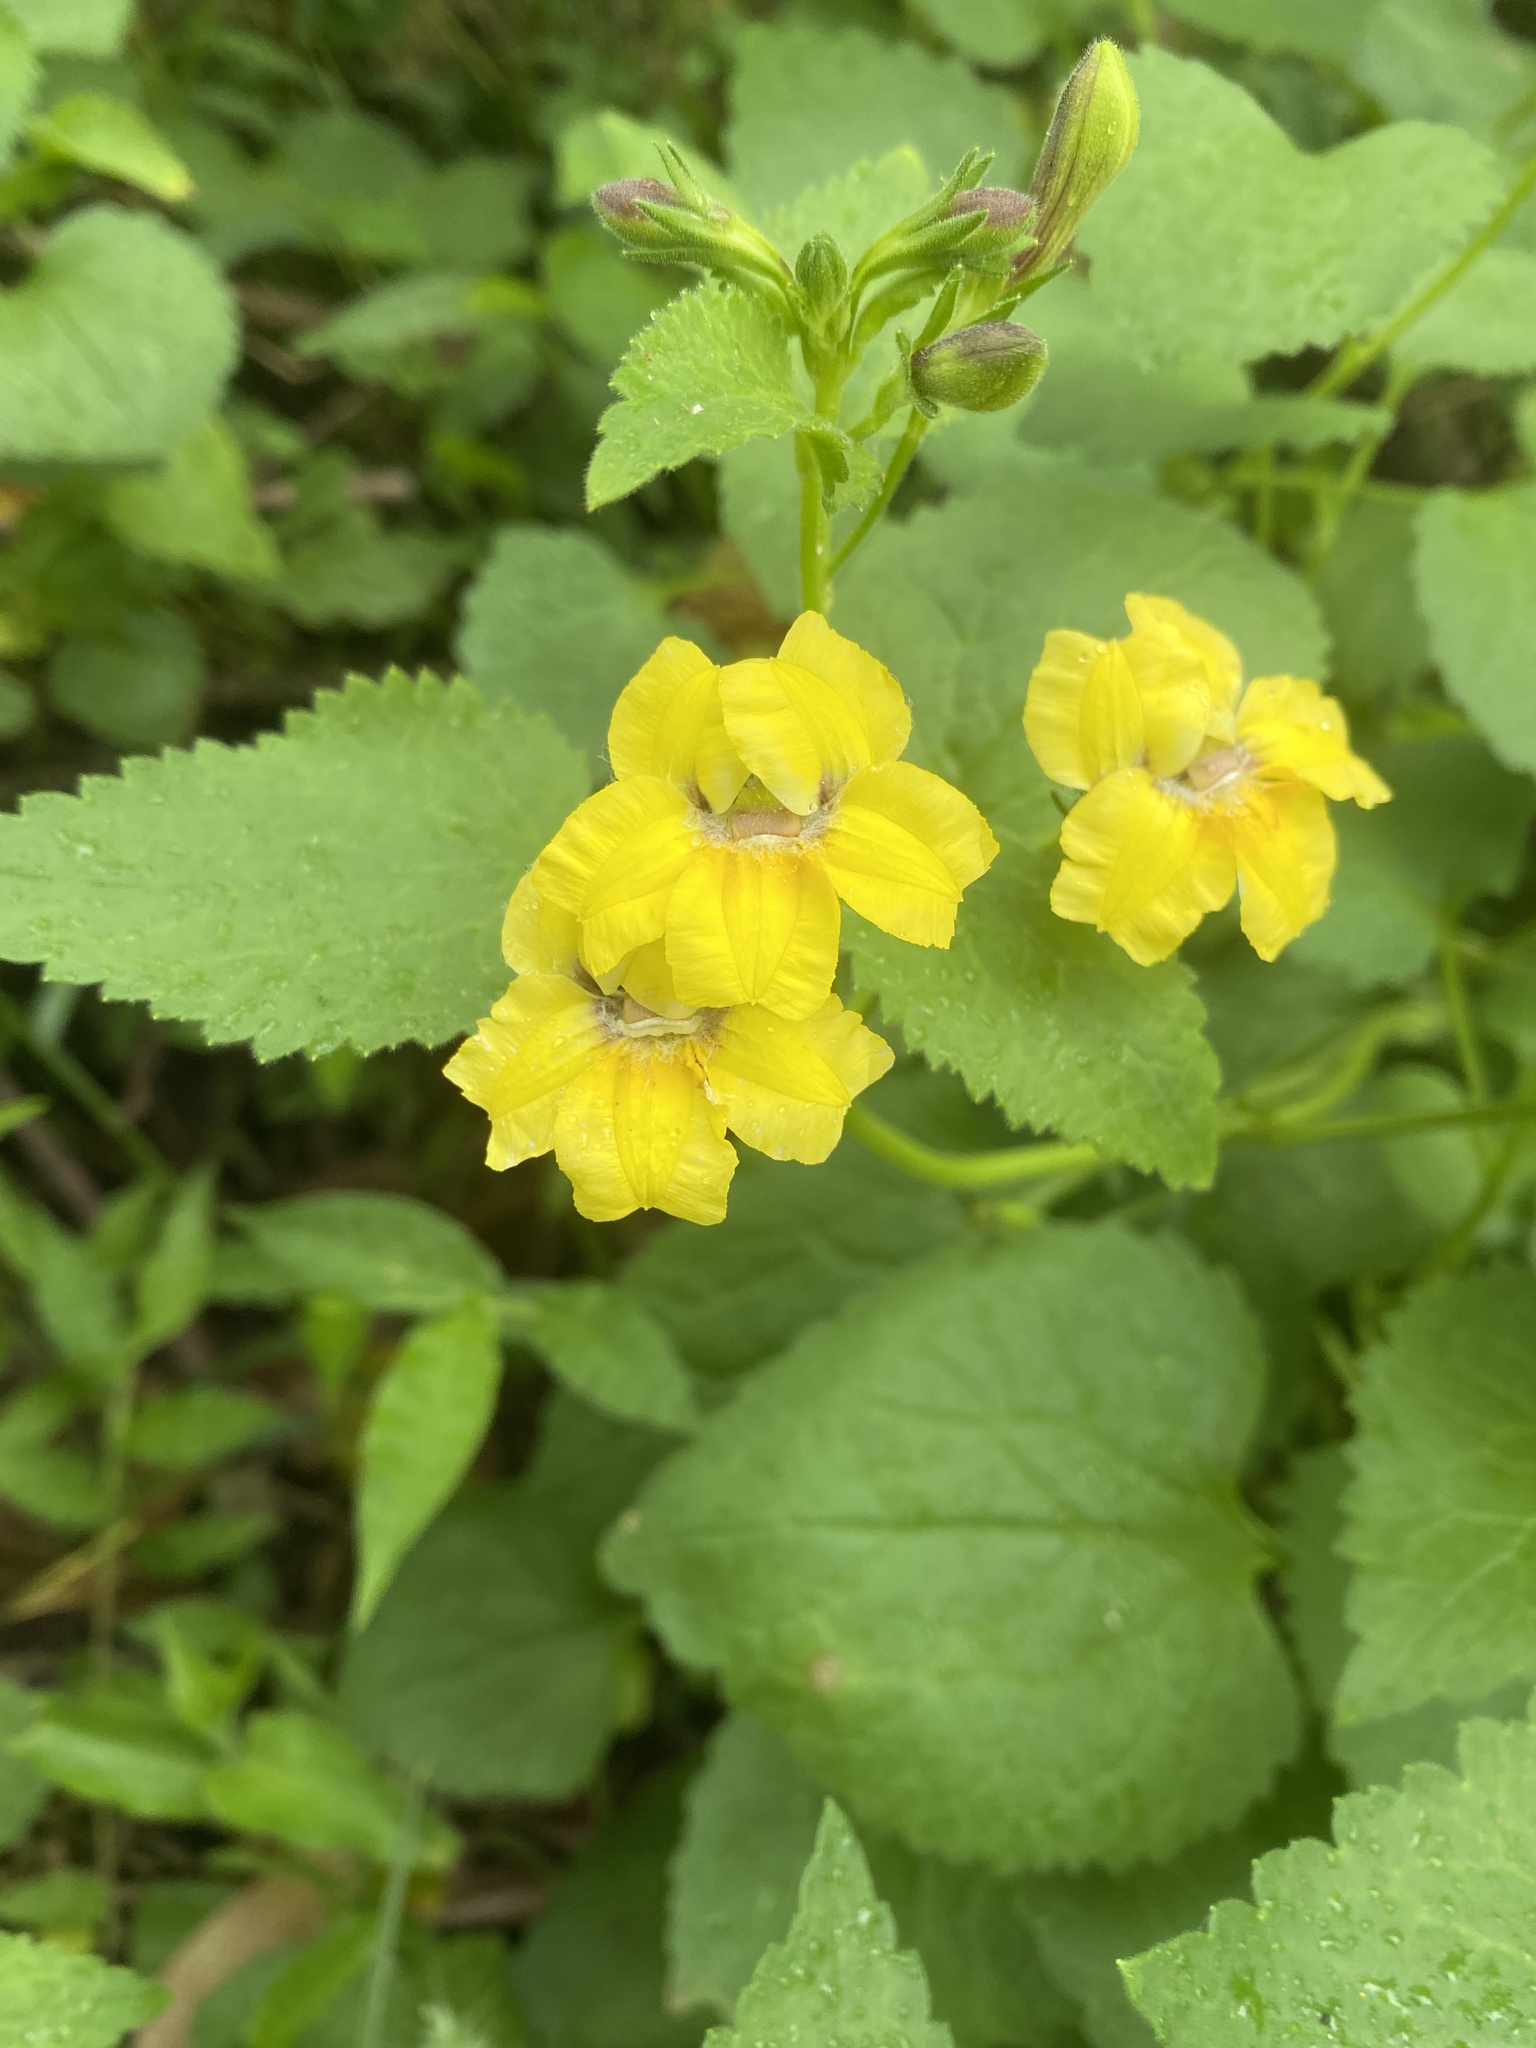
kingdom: Plantae
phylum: Tracheophyta
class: Magnoliopsida
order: Asterales
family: Goodeniaceae
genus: Goodenia
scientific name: Goodenia grandiflora
